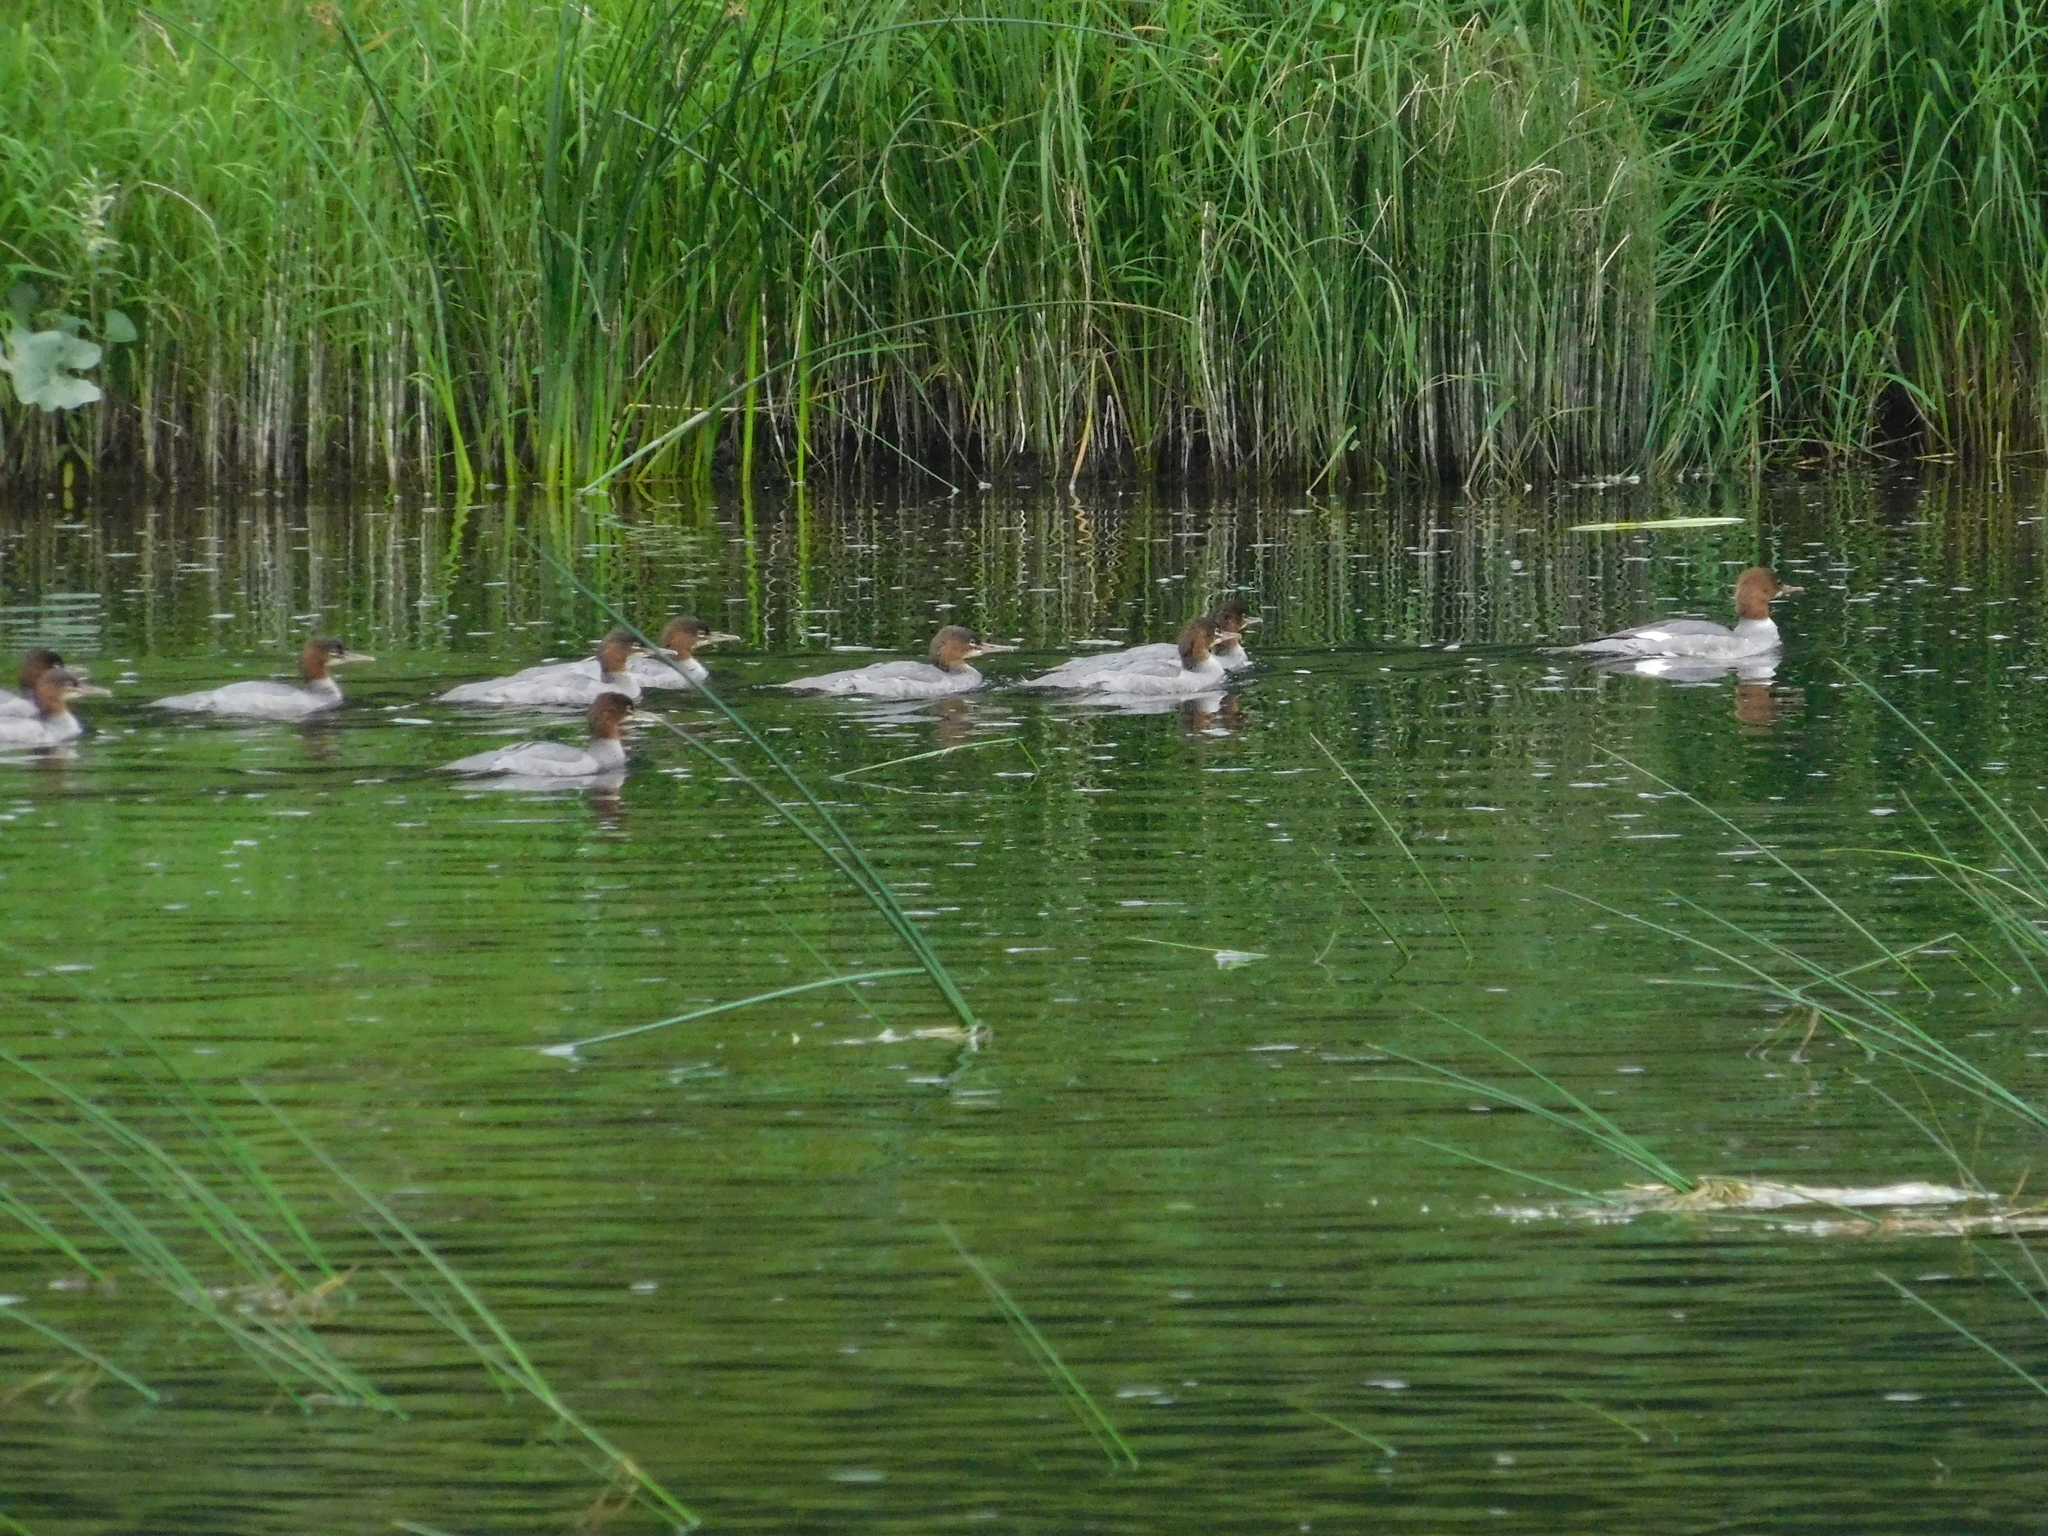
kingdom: Animalia
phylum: Chordata
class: Aves
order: Anseriformes
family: Anatidae
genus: Mergus
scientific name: Mergus merganser
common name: Common merganser
